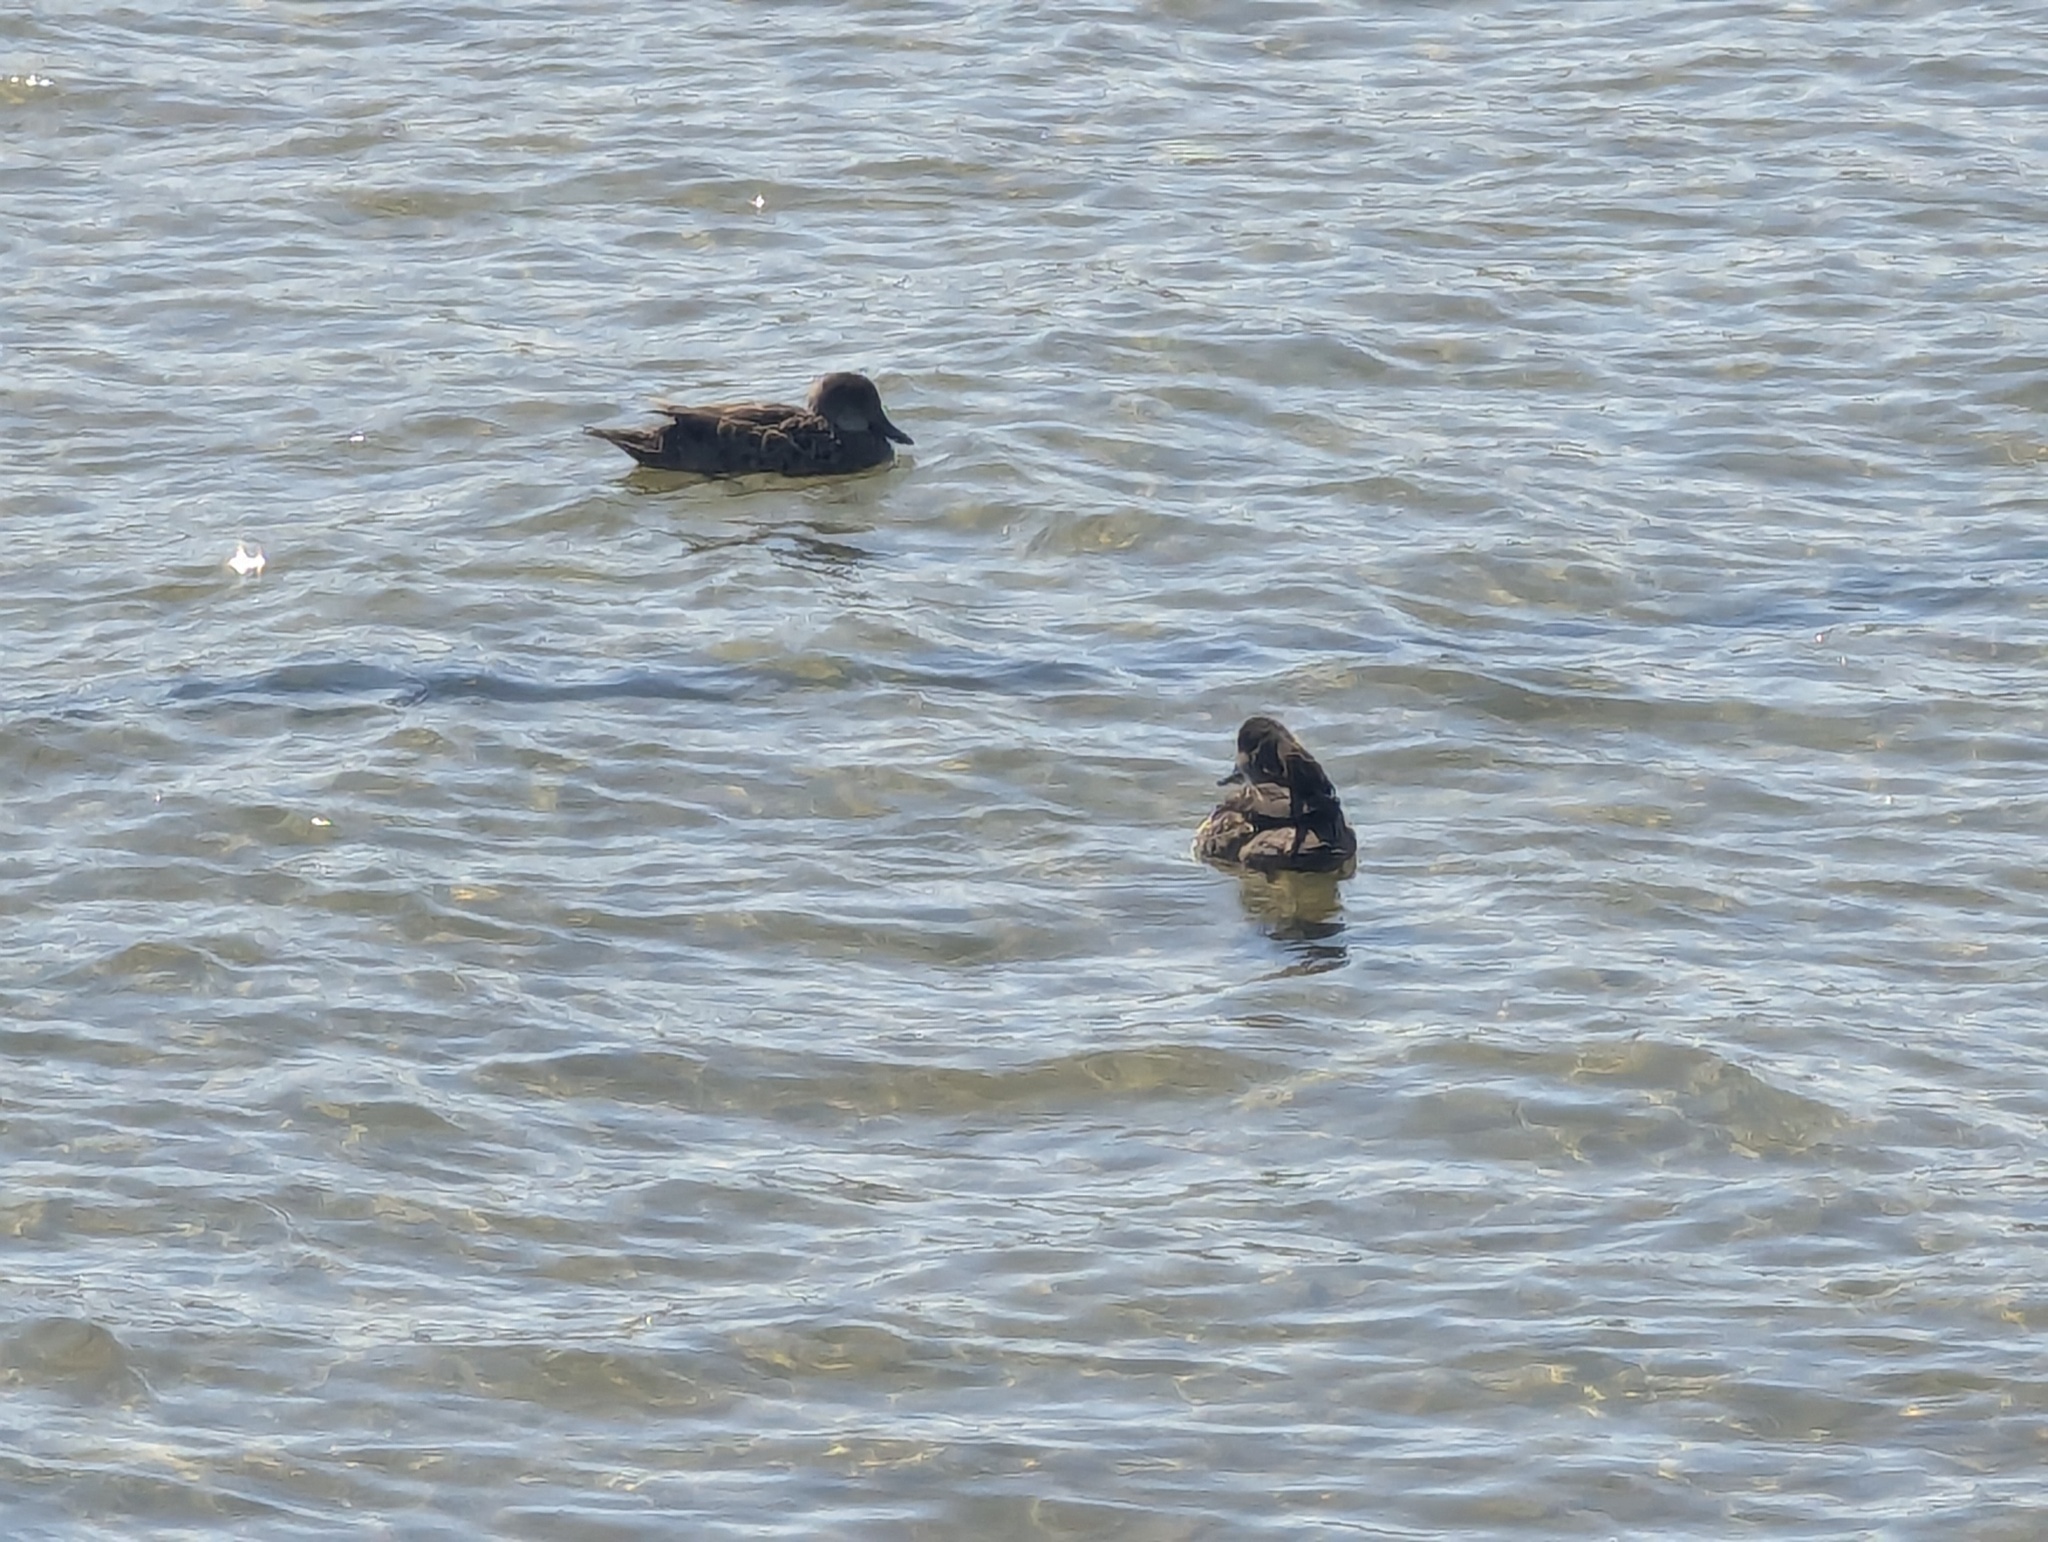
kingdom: Animalia
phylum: Chordata
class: Aves
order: Anseriformes
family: Anatidae
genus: Anas
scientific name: Anas gracilis
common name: Grey teal
